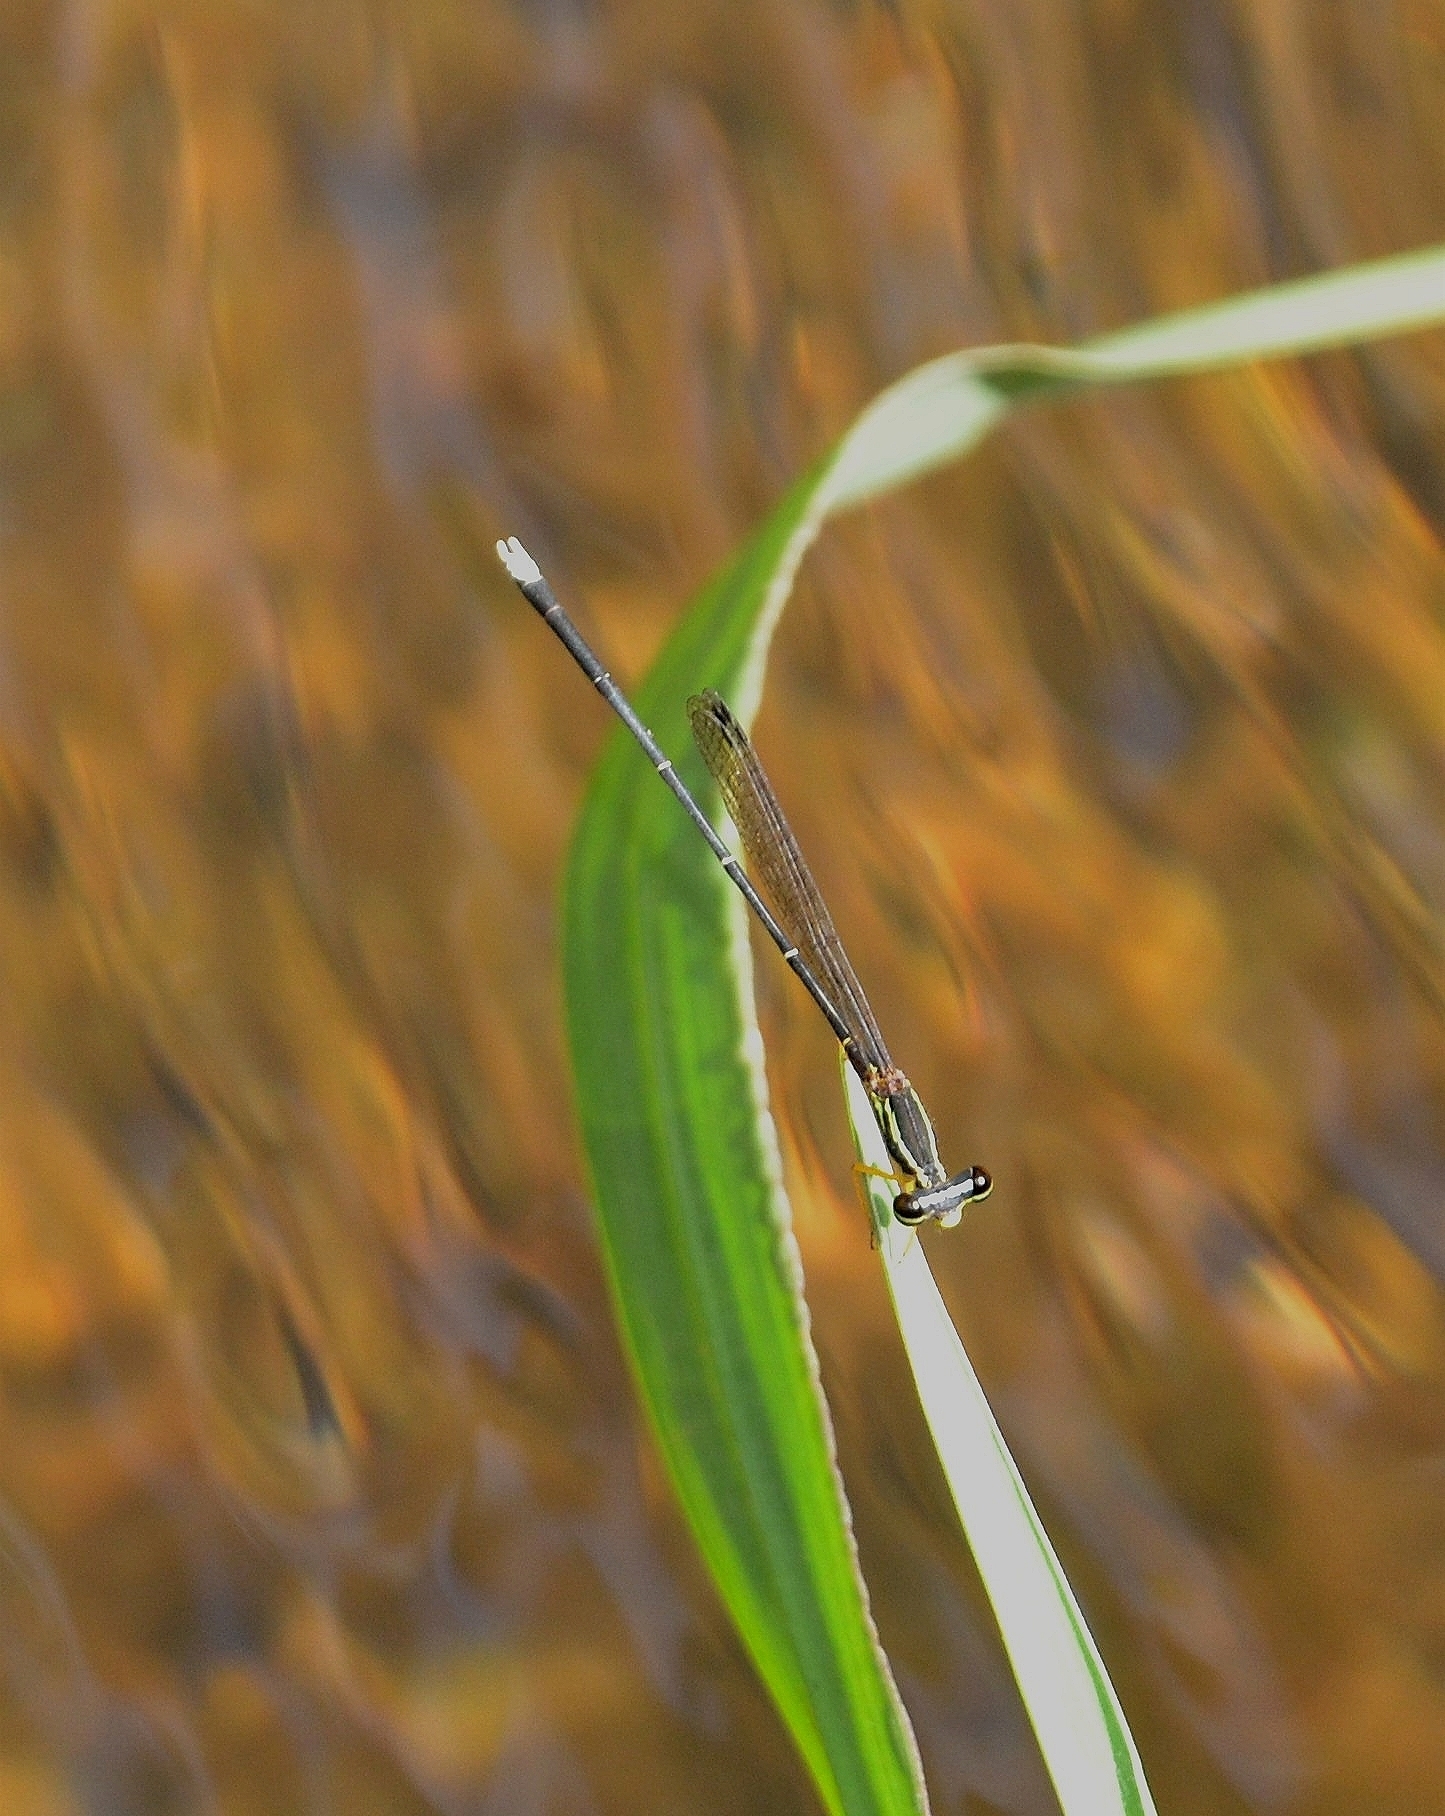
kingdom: Animalia
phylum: Arthropoda
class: Insecta
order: Odonata
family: Platycnemididae
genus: Copera
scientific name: Copera vittata
